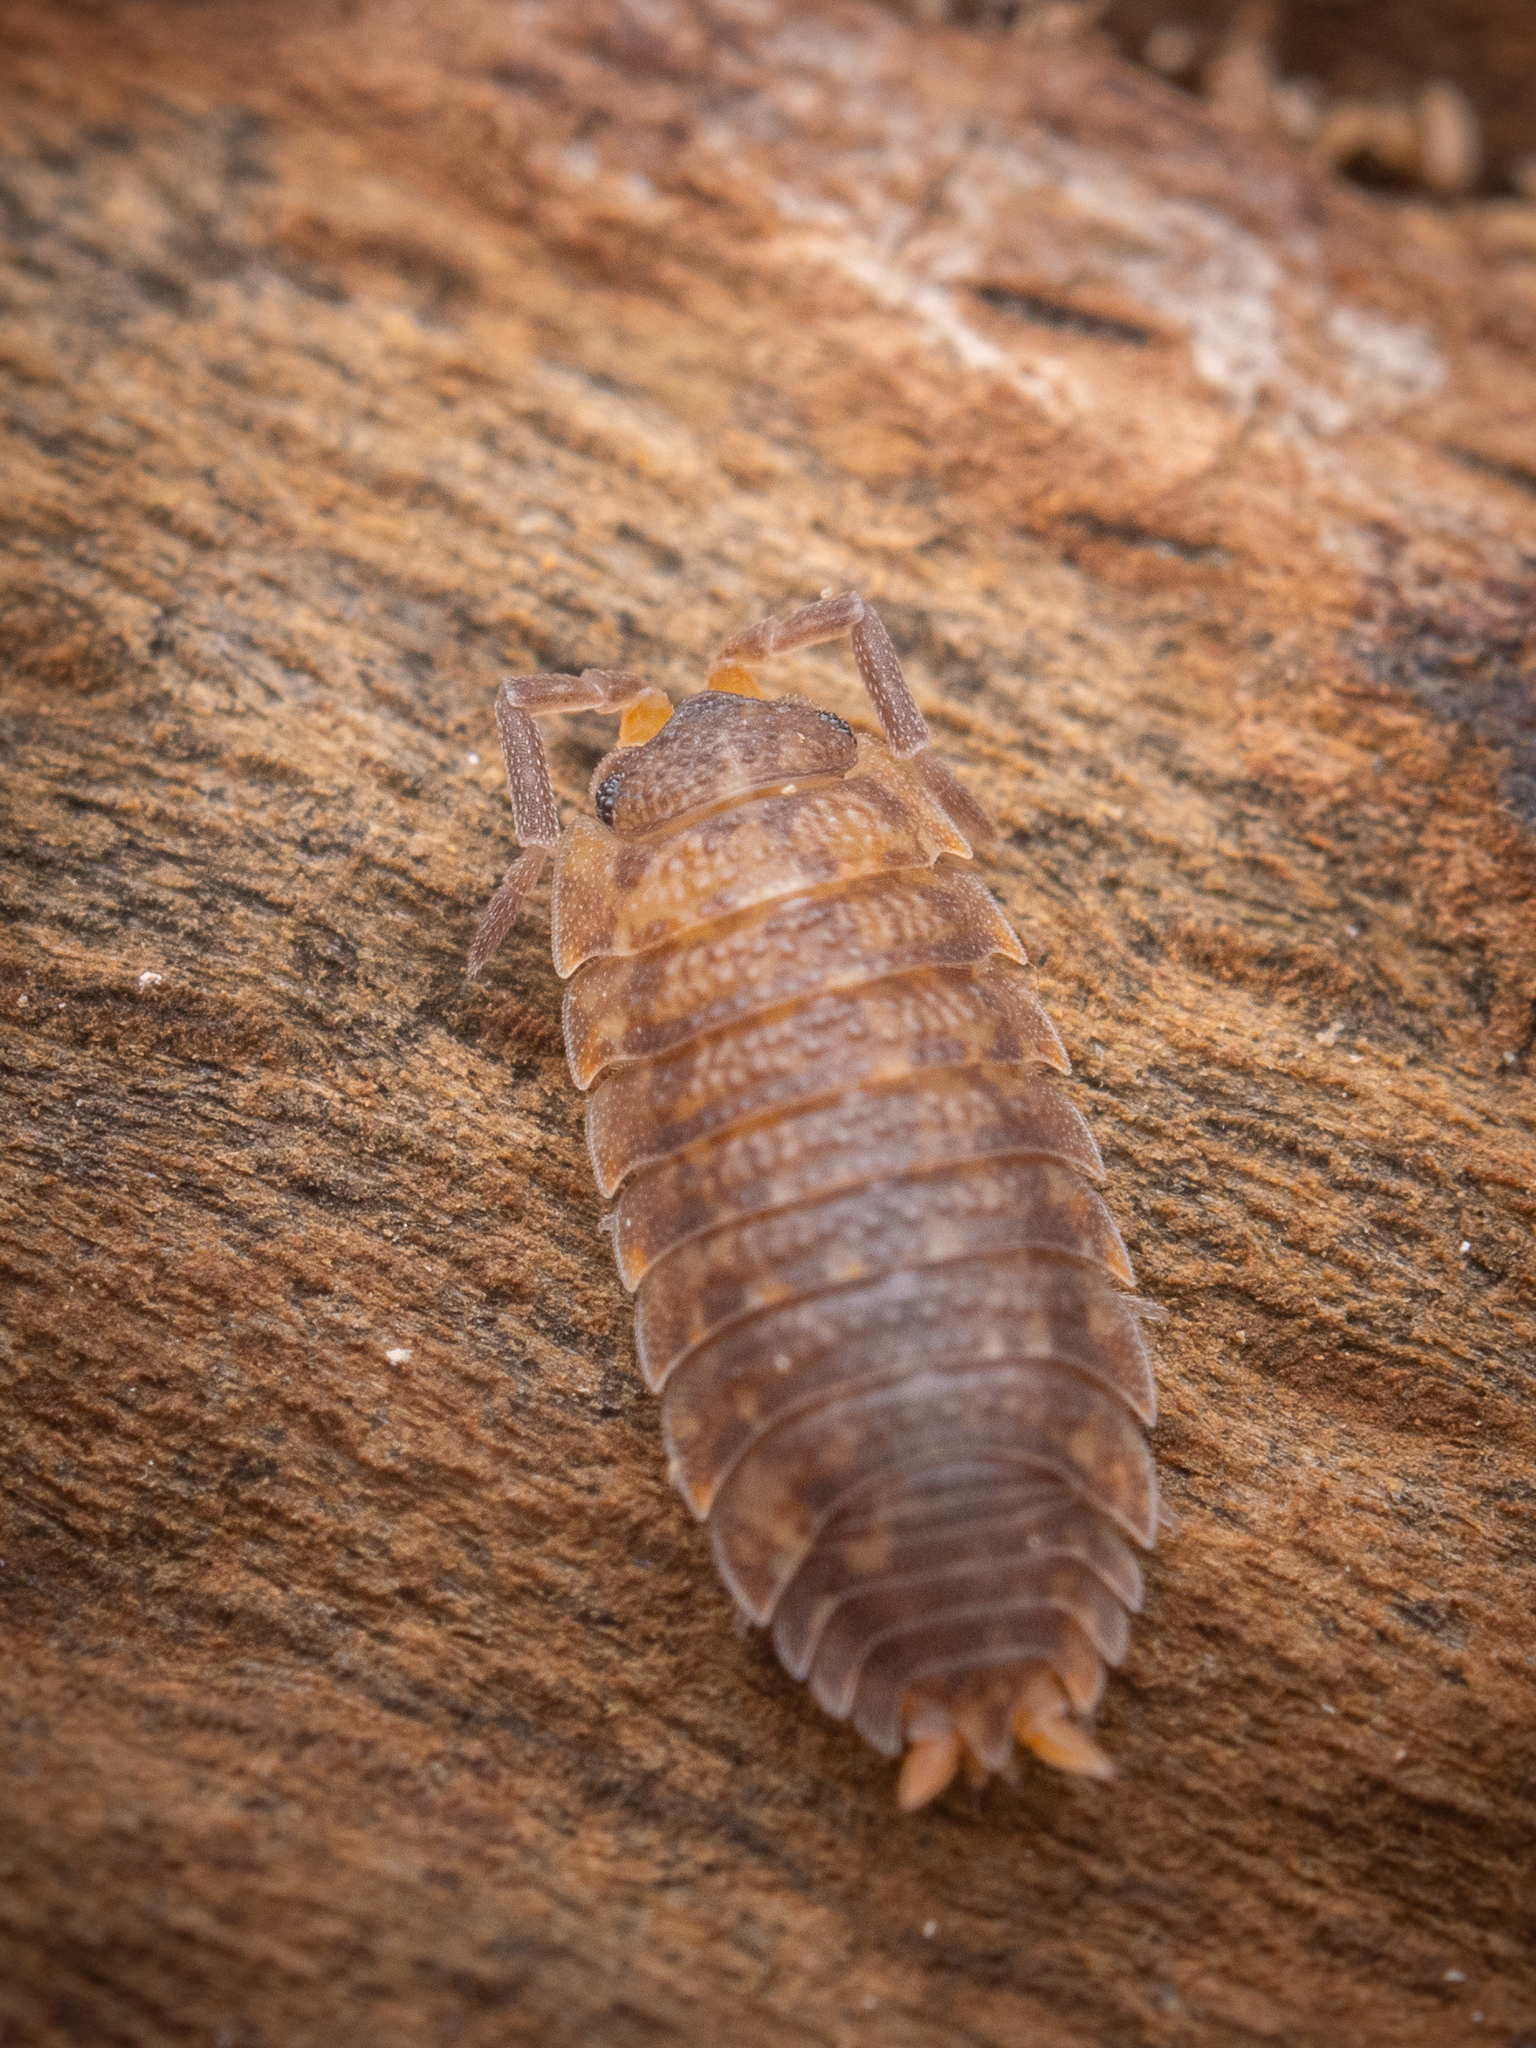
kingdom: Animalia
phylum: Arthropoda
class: Malacostraca
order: Isopoda
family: Porcellionidae
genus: Porcellio
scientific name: Porcellio scaber
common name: Common rough woodlouse
